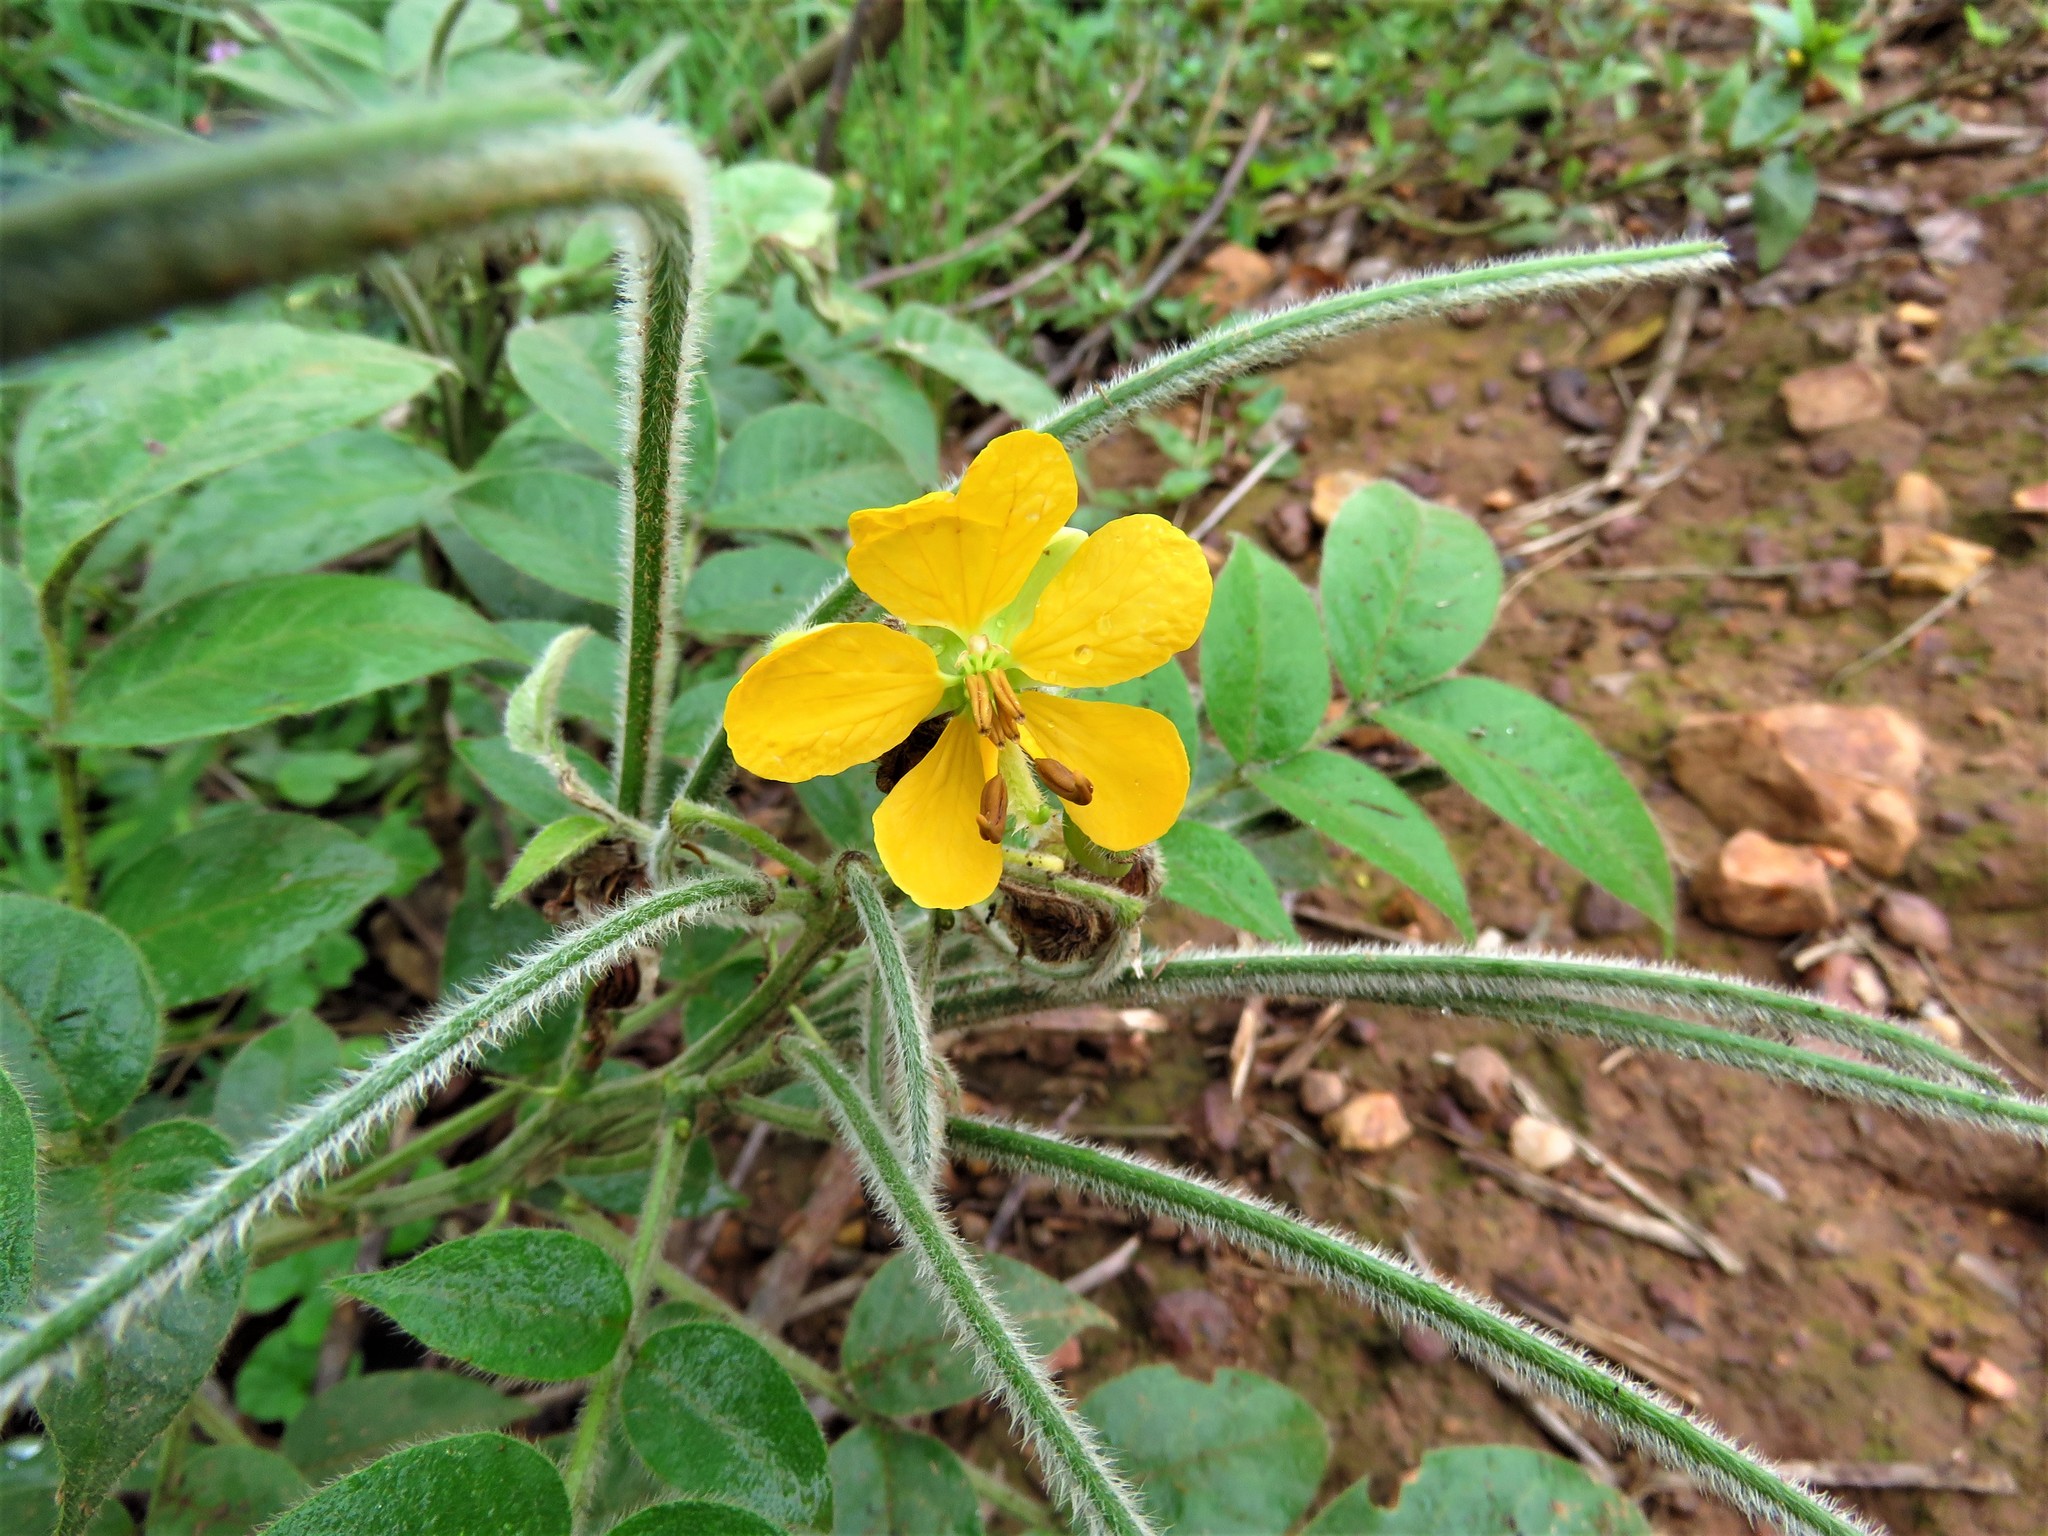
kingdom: Plantae
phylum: Tracheophyta
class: Magnoliopsida
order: Fabales
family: Fabaceae
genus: Senna
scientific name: Senna hirsuta
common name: Woolly senna
